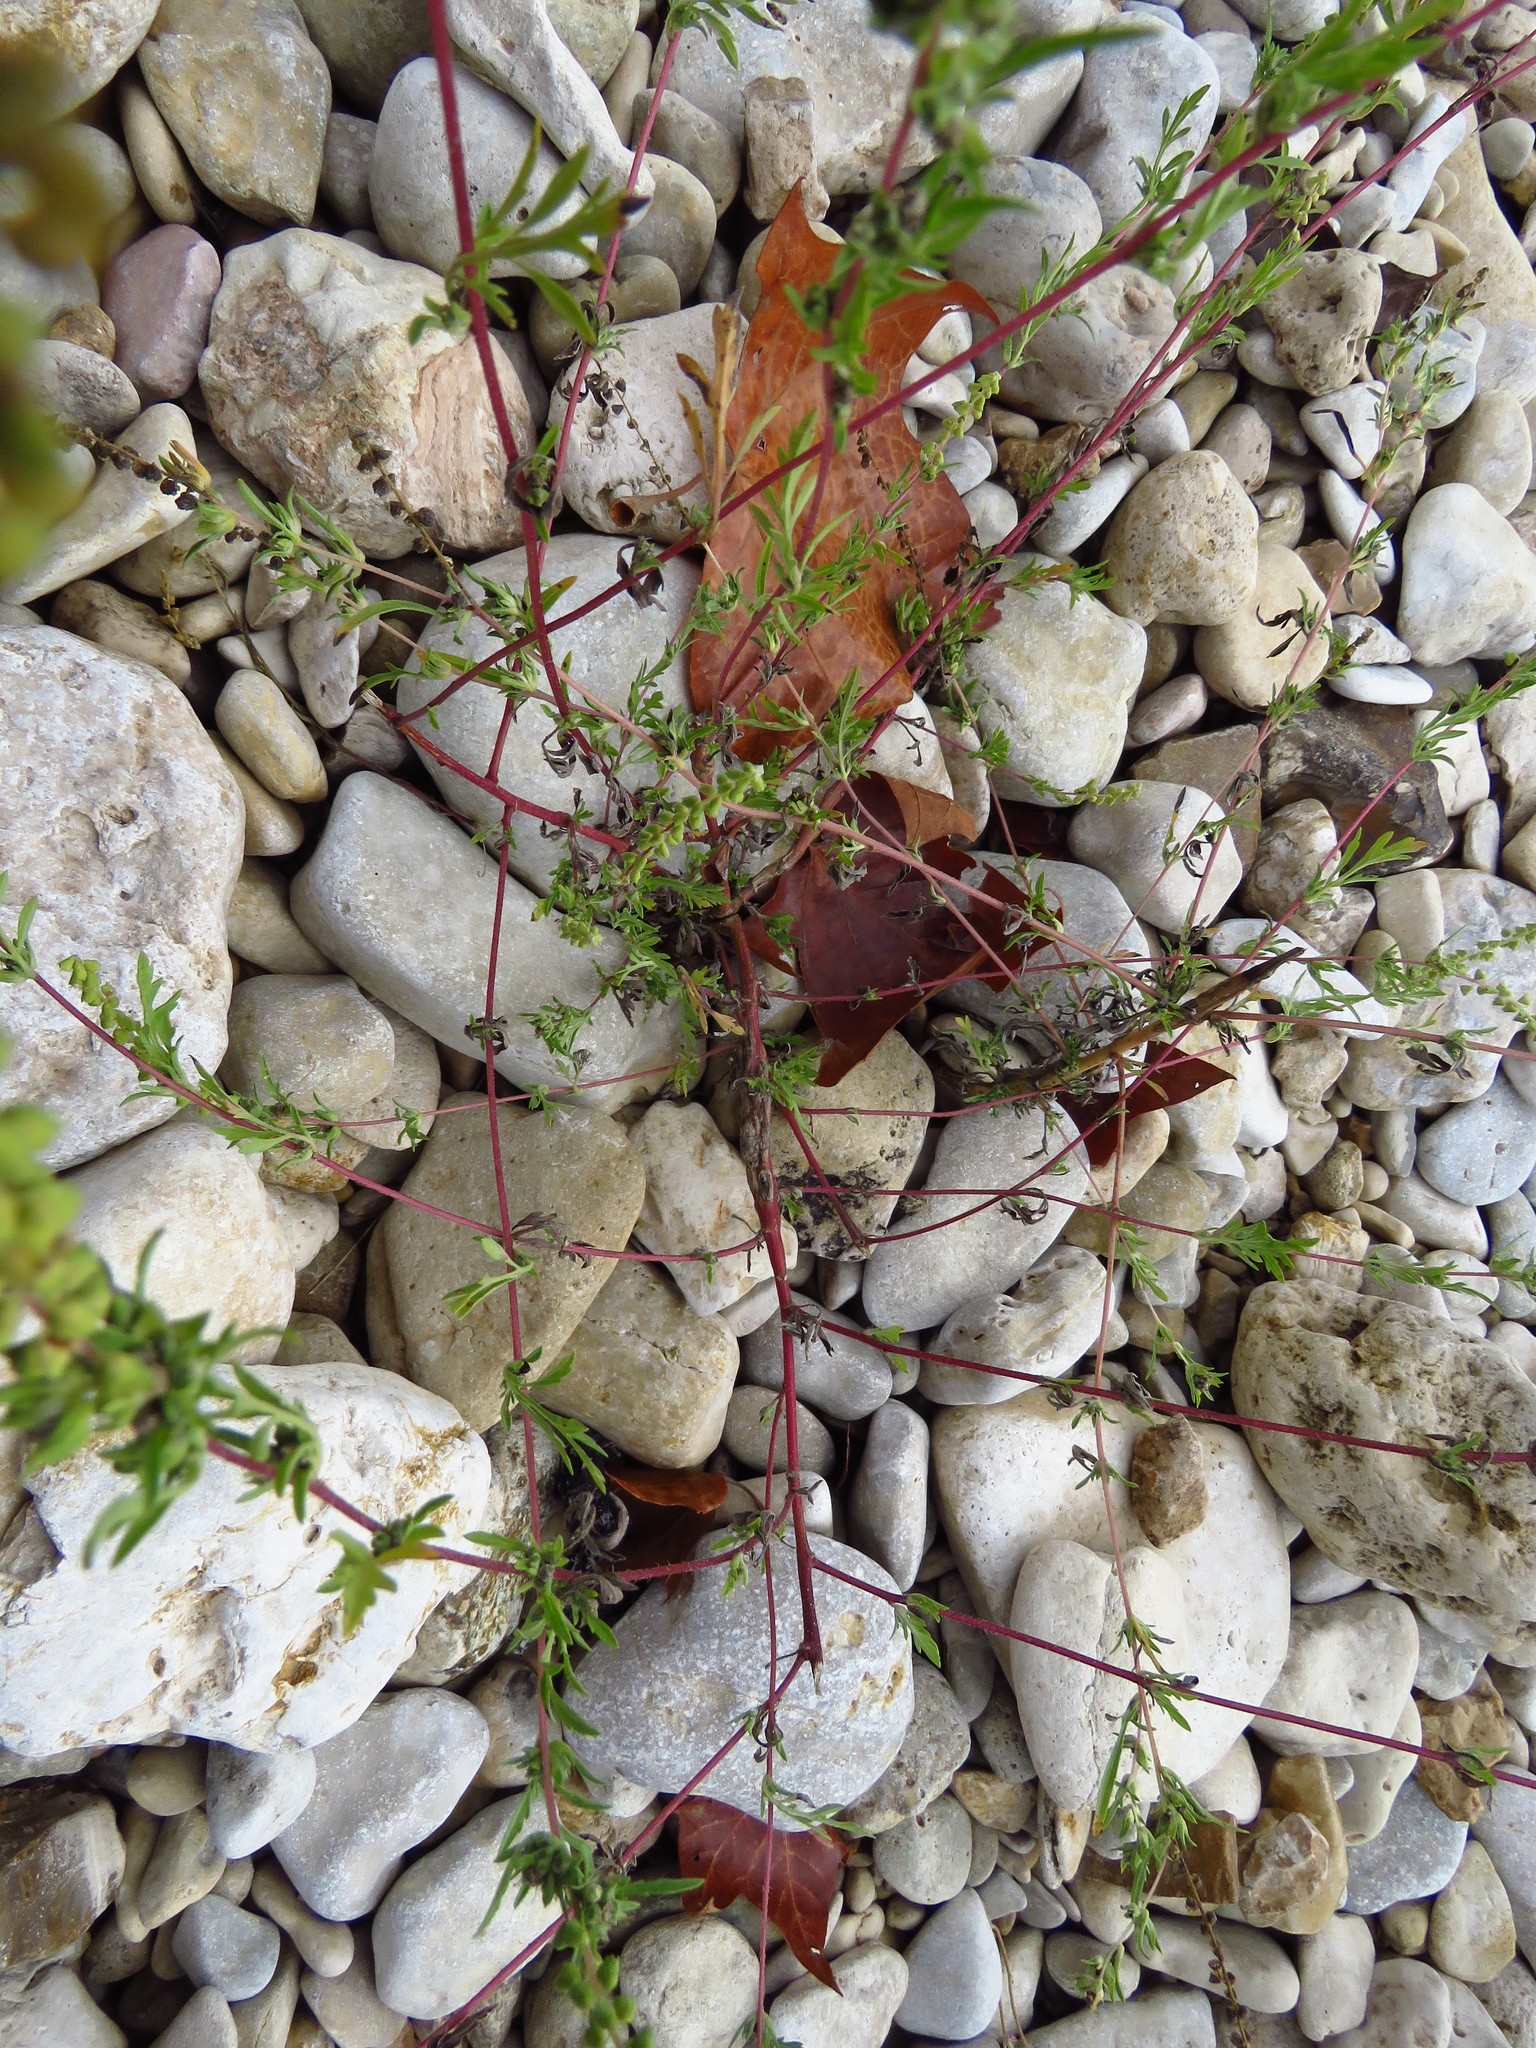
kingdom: Plantae
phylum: Tracheophyta
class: Magnoliopsida
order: Asterales
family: Asteraceae
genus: Ambrosia
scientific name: Ambrosia artemisiifolia
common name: Annual ragweed
